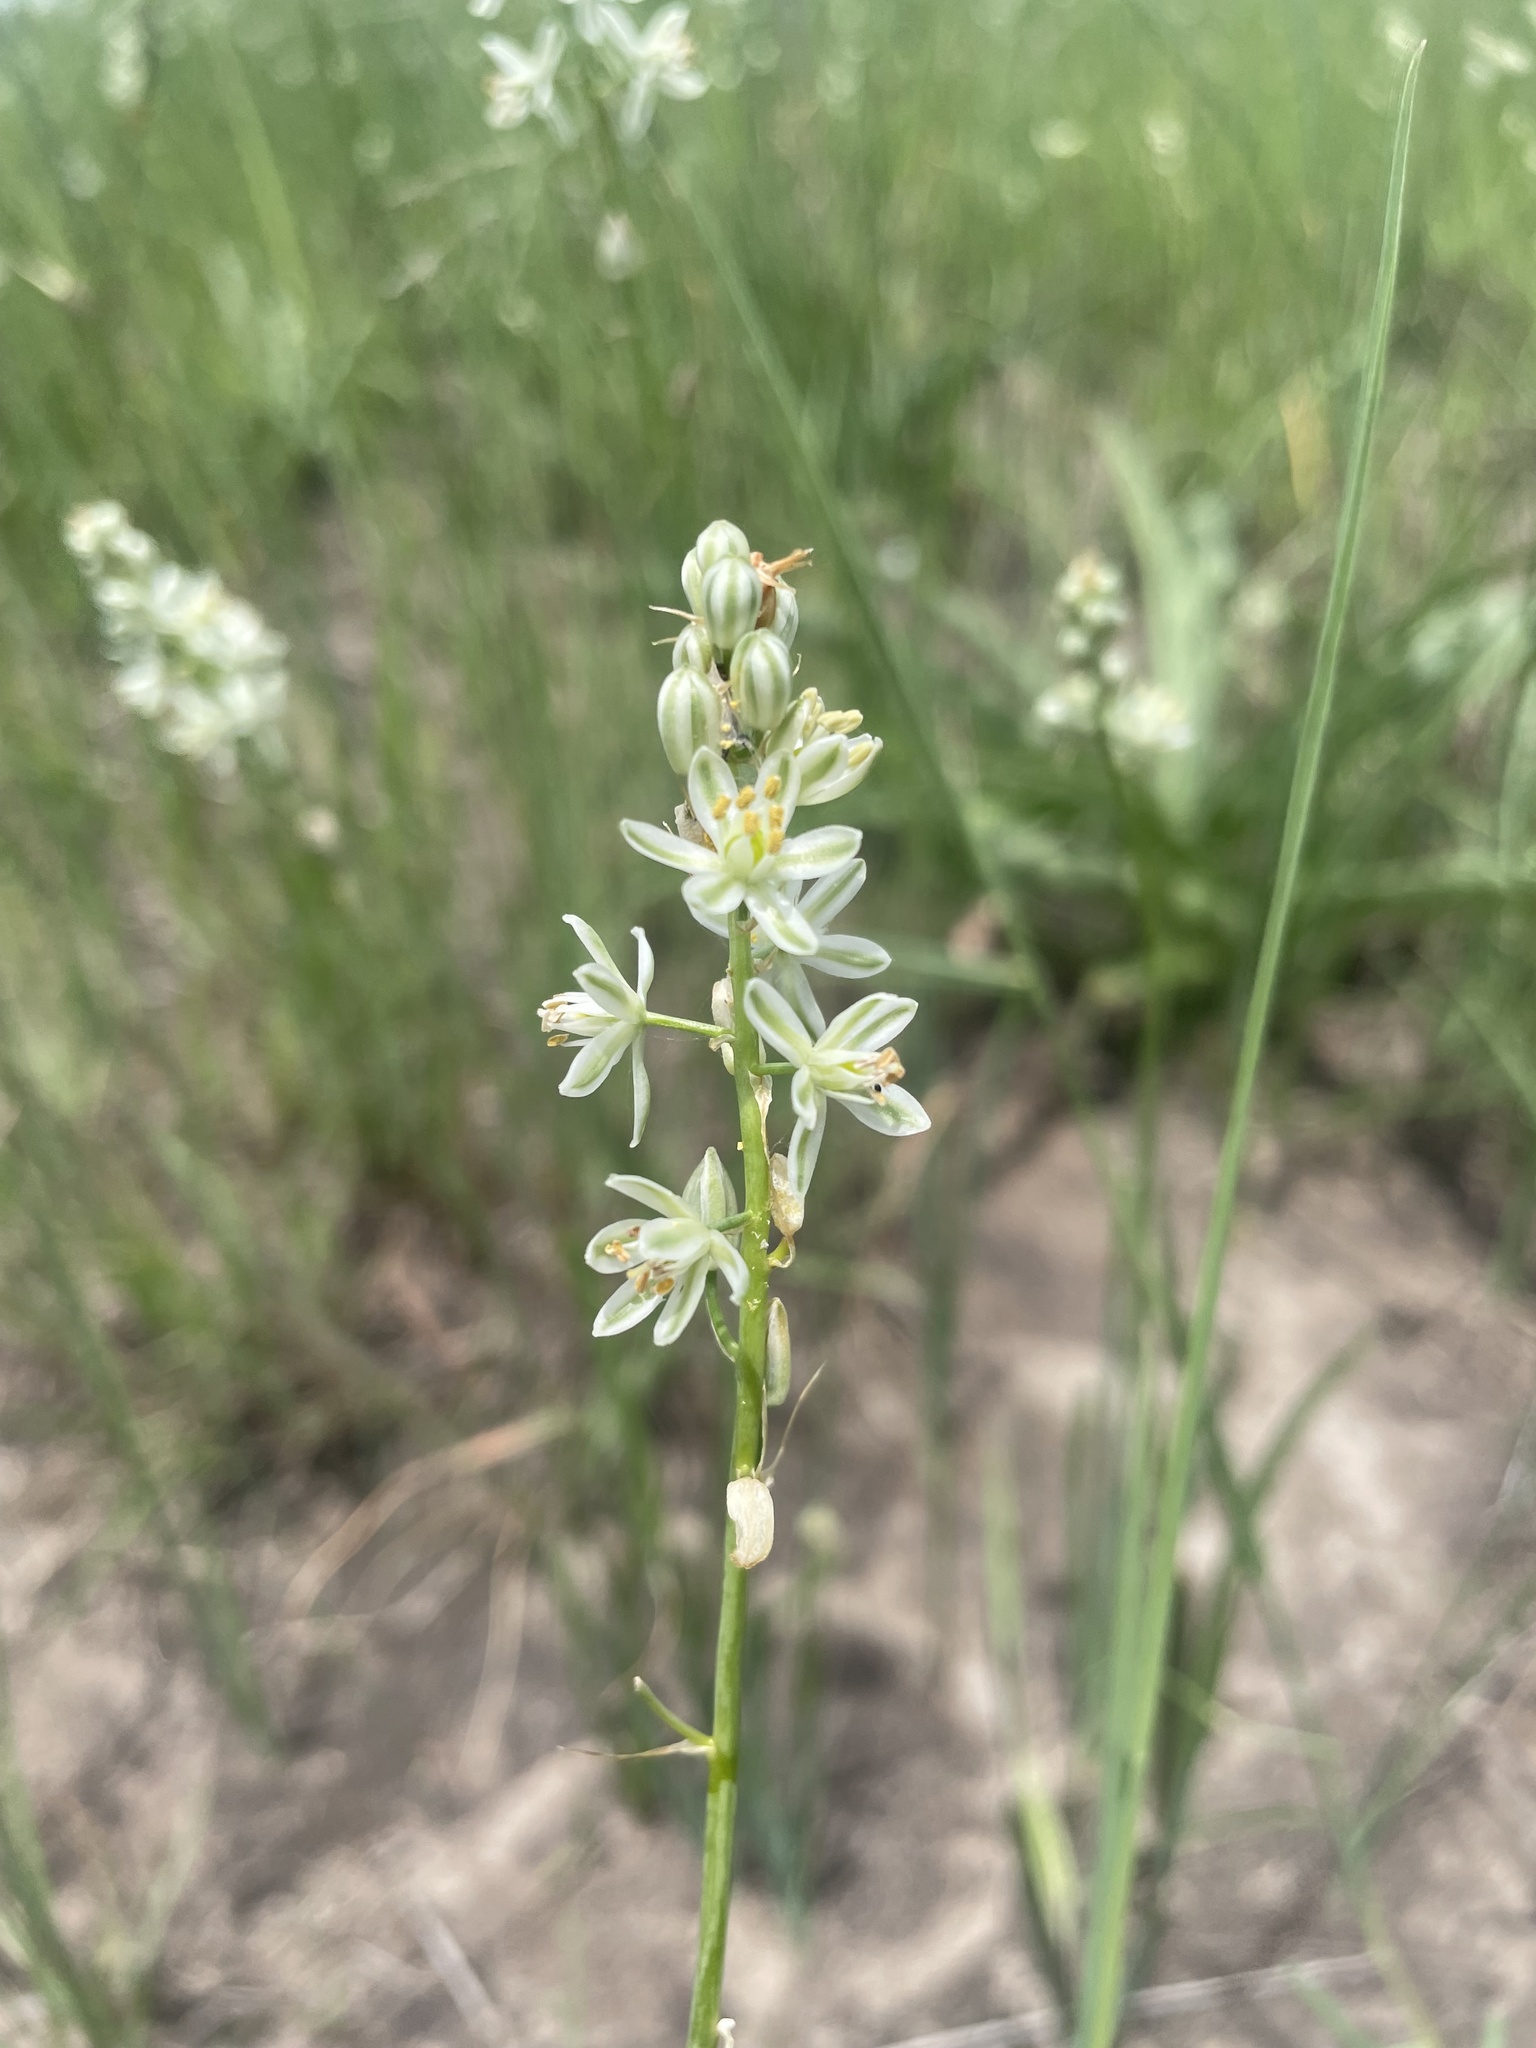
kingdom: Plantae
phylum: Tracheophyta
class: Liliopsida
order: Asparagales
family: Asparagaceae
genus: Albuca
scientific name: Albuca virens
